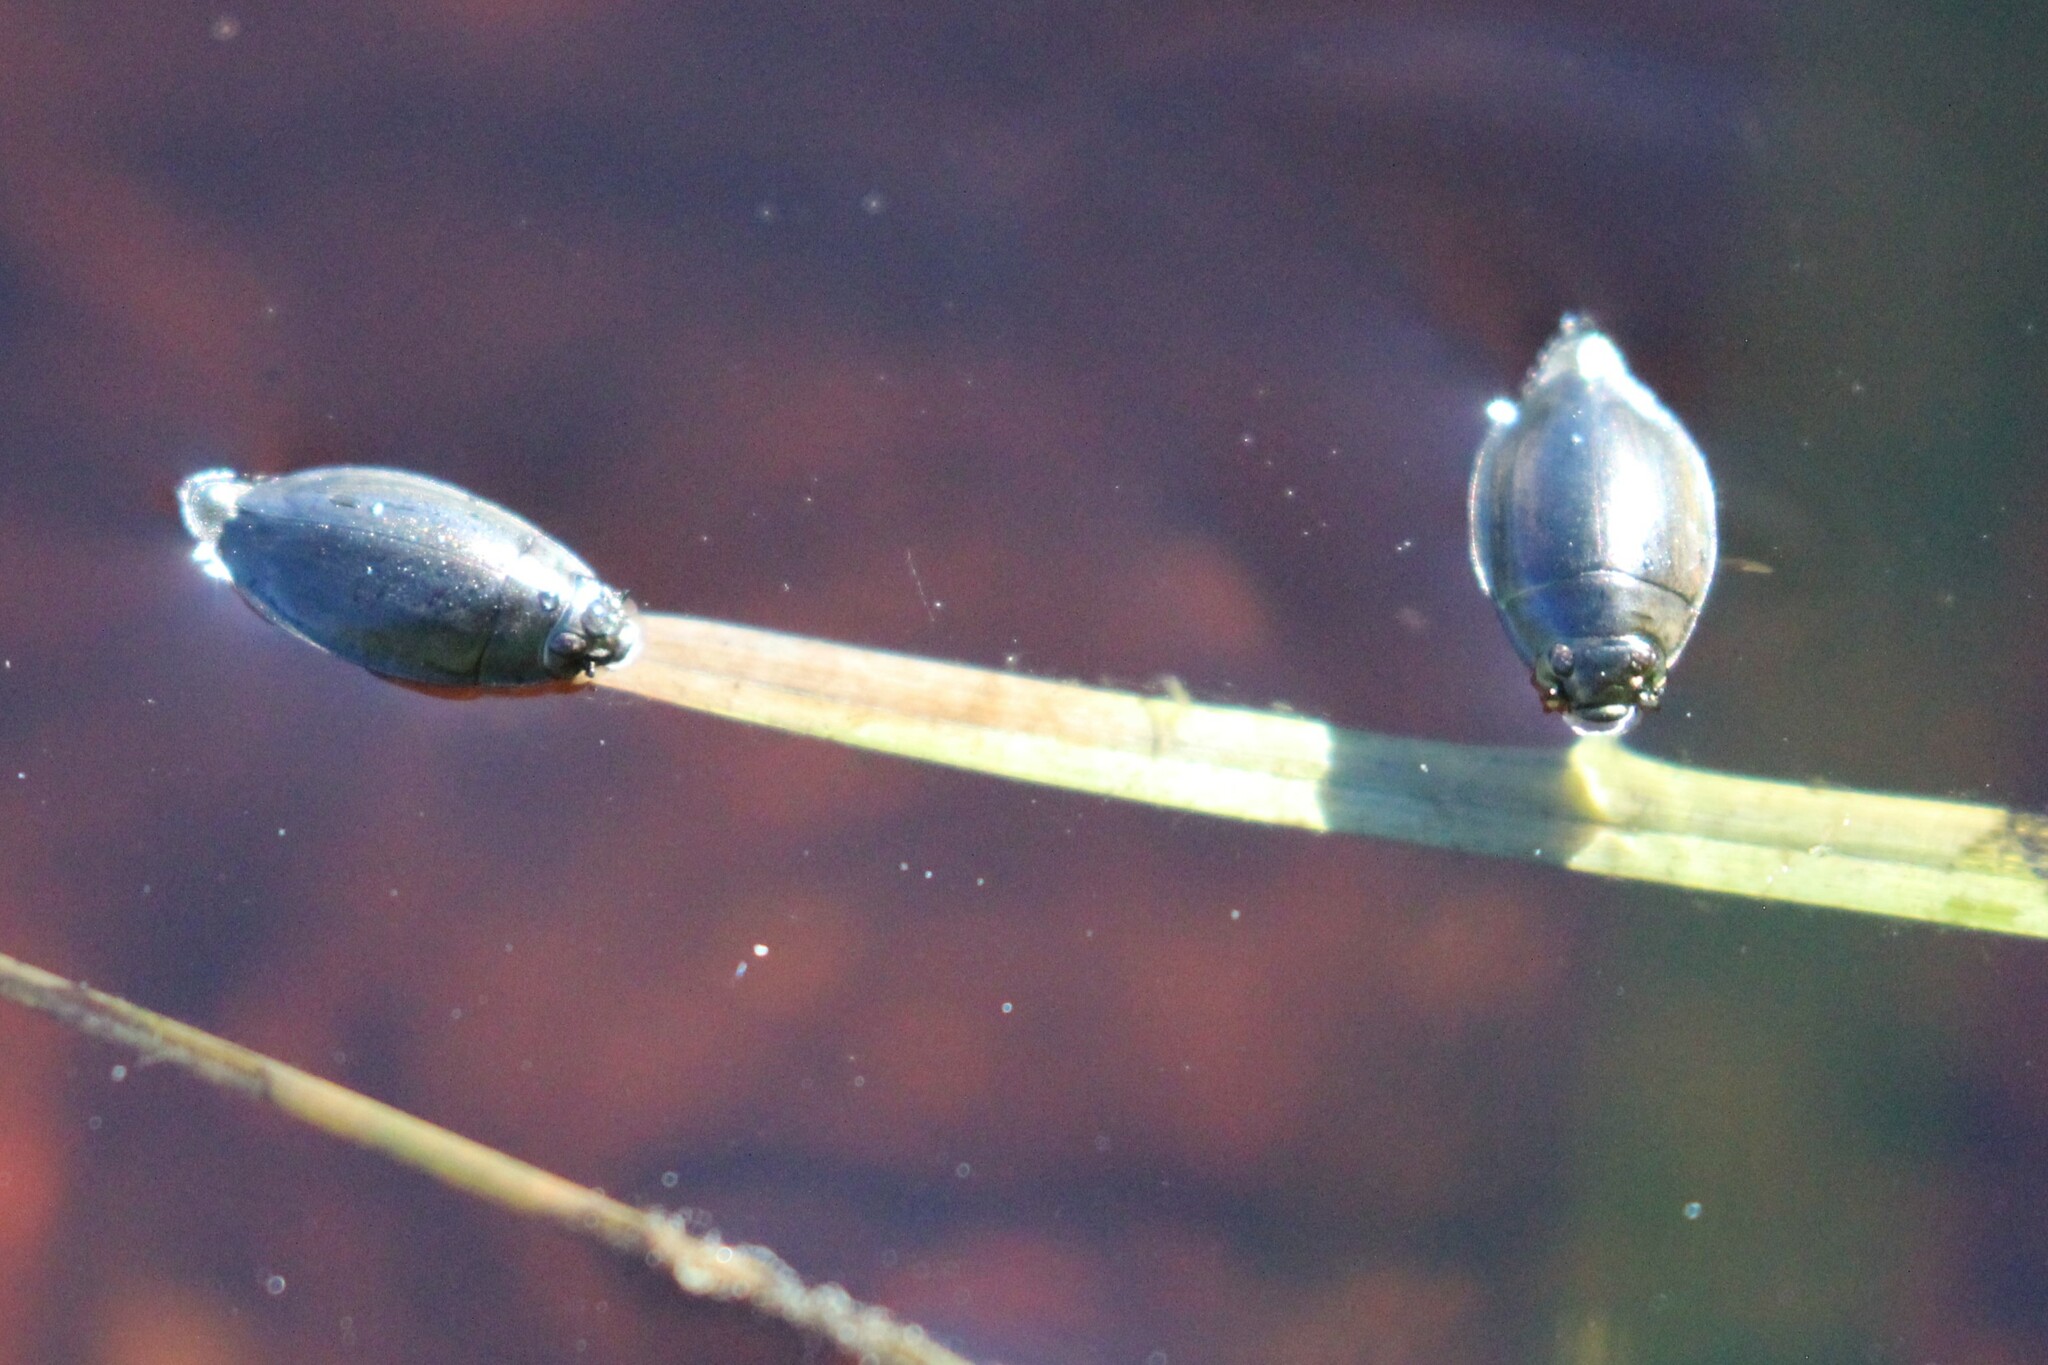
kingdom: Animalia
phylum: Arthropoda
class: Insecta
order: Coleoptera
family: Gyrinidae
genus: Dineutus
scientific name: Dineutus
